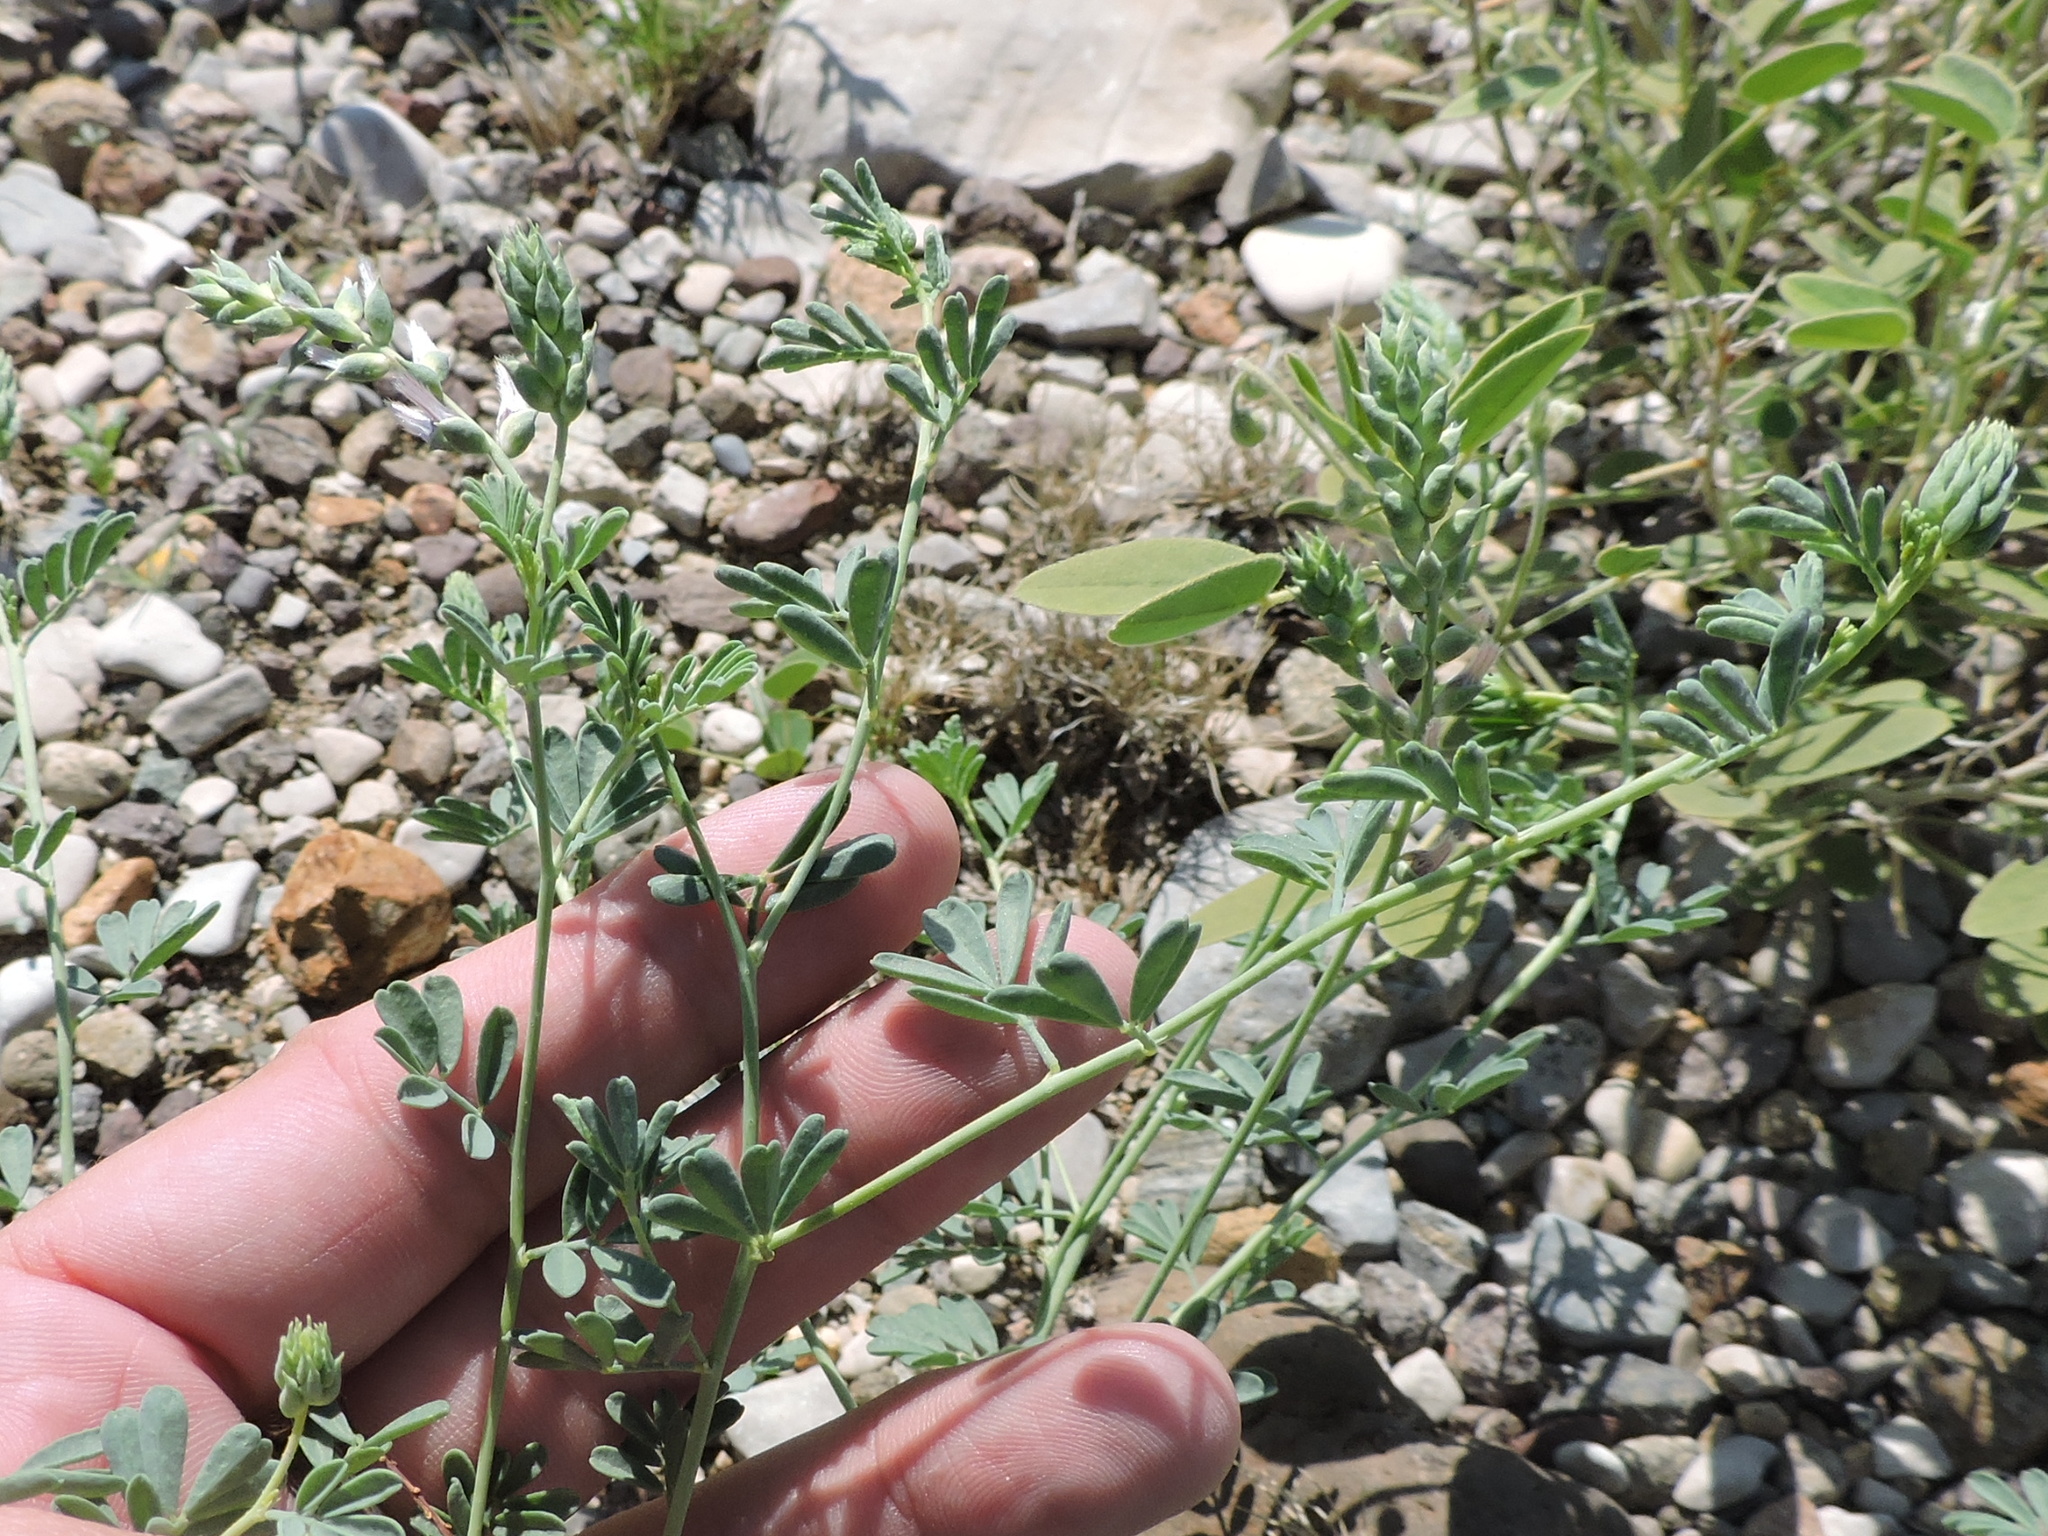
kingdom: Plantae
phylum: Tracheophyta
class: Magnoliopsida
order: Fabales
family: Fabaceae
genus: Dalea
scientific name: Dalea pogonathera
